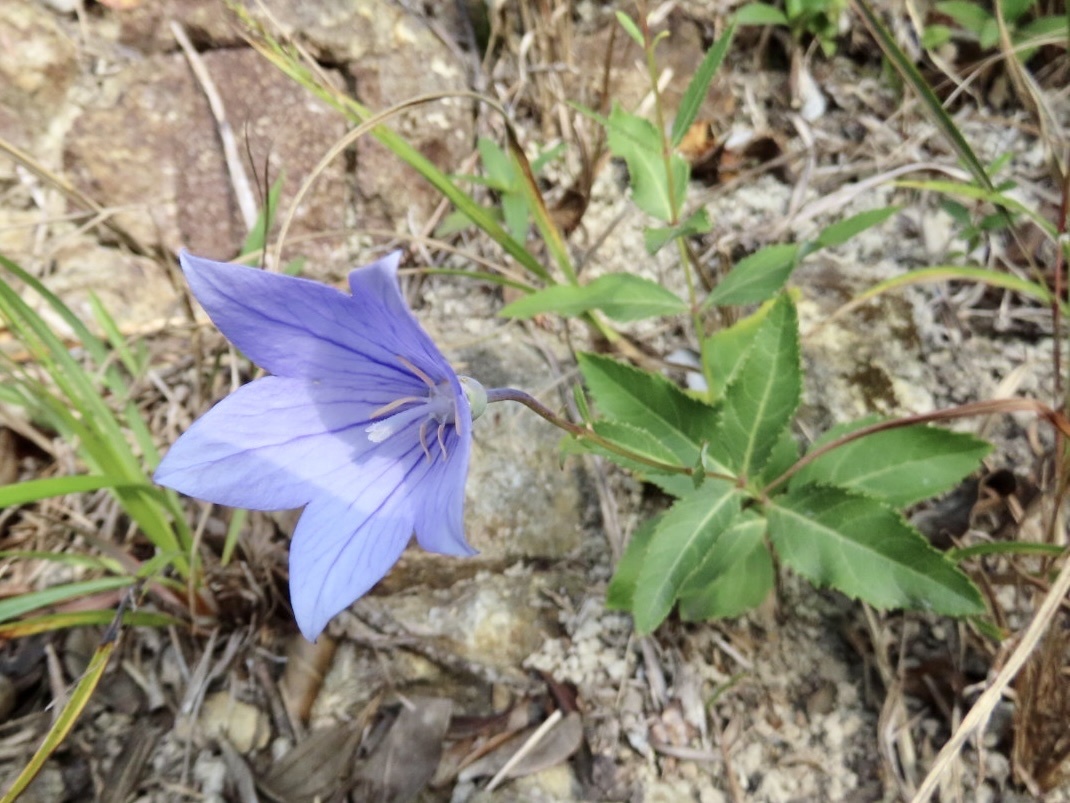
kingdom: Plantae
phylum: Tracheophyta
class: Magnoliopsida
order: Asterales
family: Campanulaceae
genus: Platycodon
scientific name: Platycodon grandiflorus
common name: Balloon-flower
